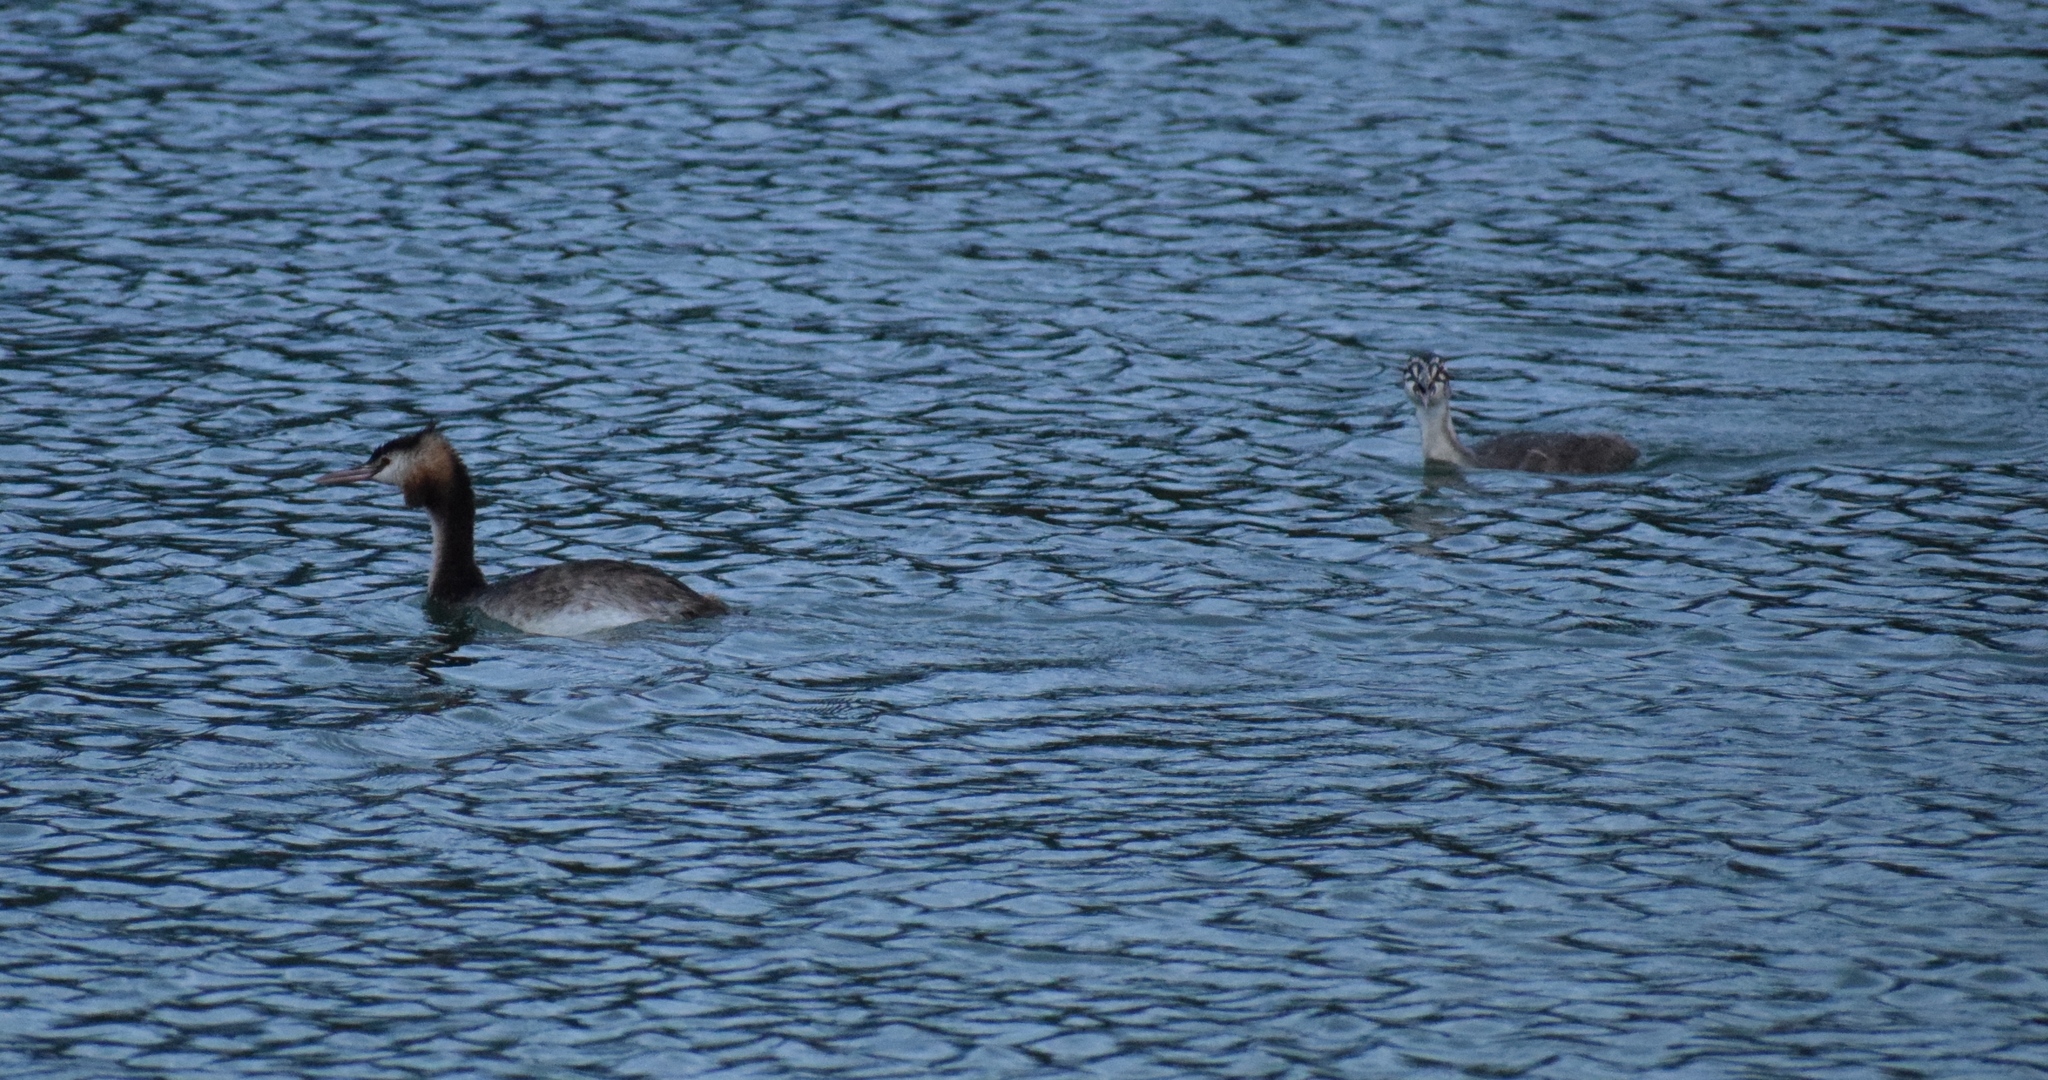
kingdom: Animalia
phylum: Chordata
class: Aves
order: Podicipediformes
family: Podicipedidae
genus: Podiceps
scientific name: Podiceps cristatus
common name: Great crested grebe
